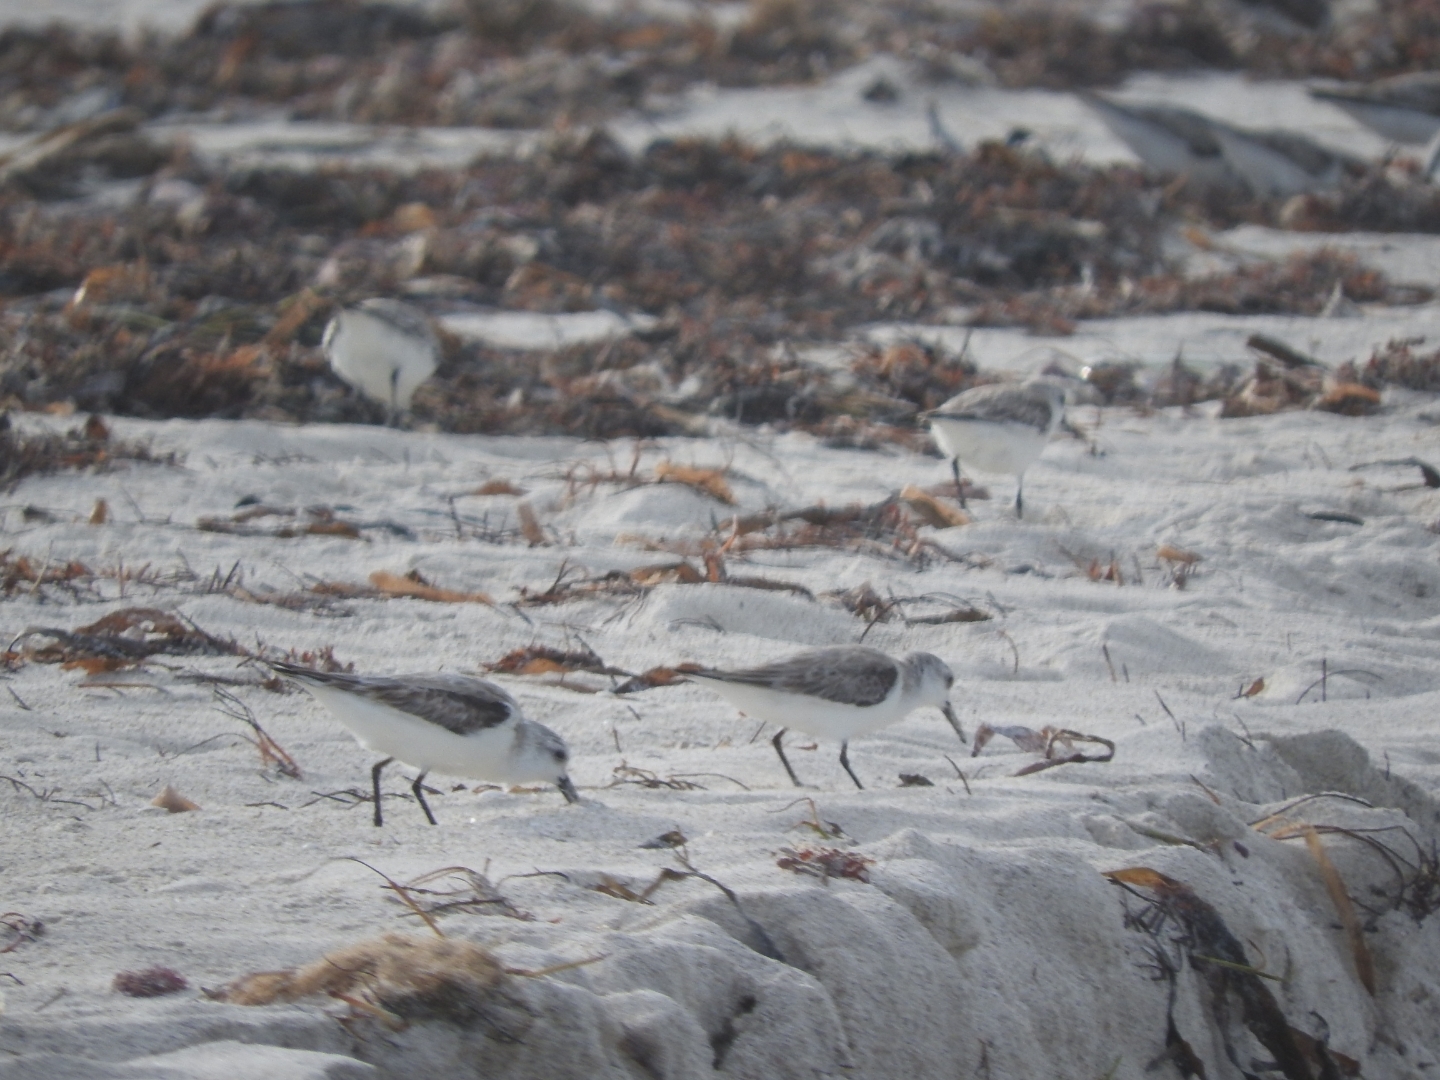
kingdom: Animalia
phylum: Chordata
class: Aves
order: Charadriiformes
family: Scolopacidae
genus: Calidris
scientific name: Calidris alba
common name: Sanderling
